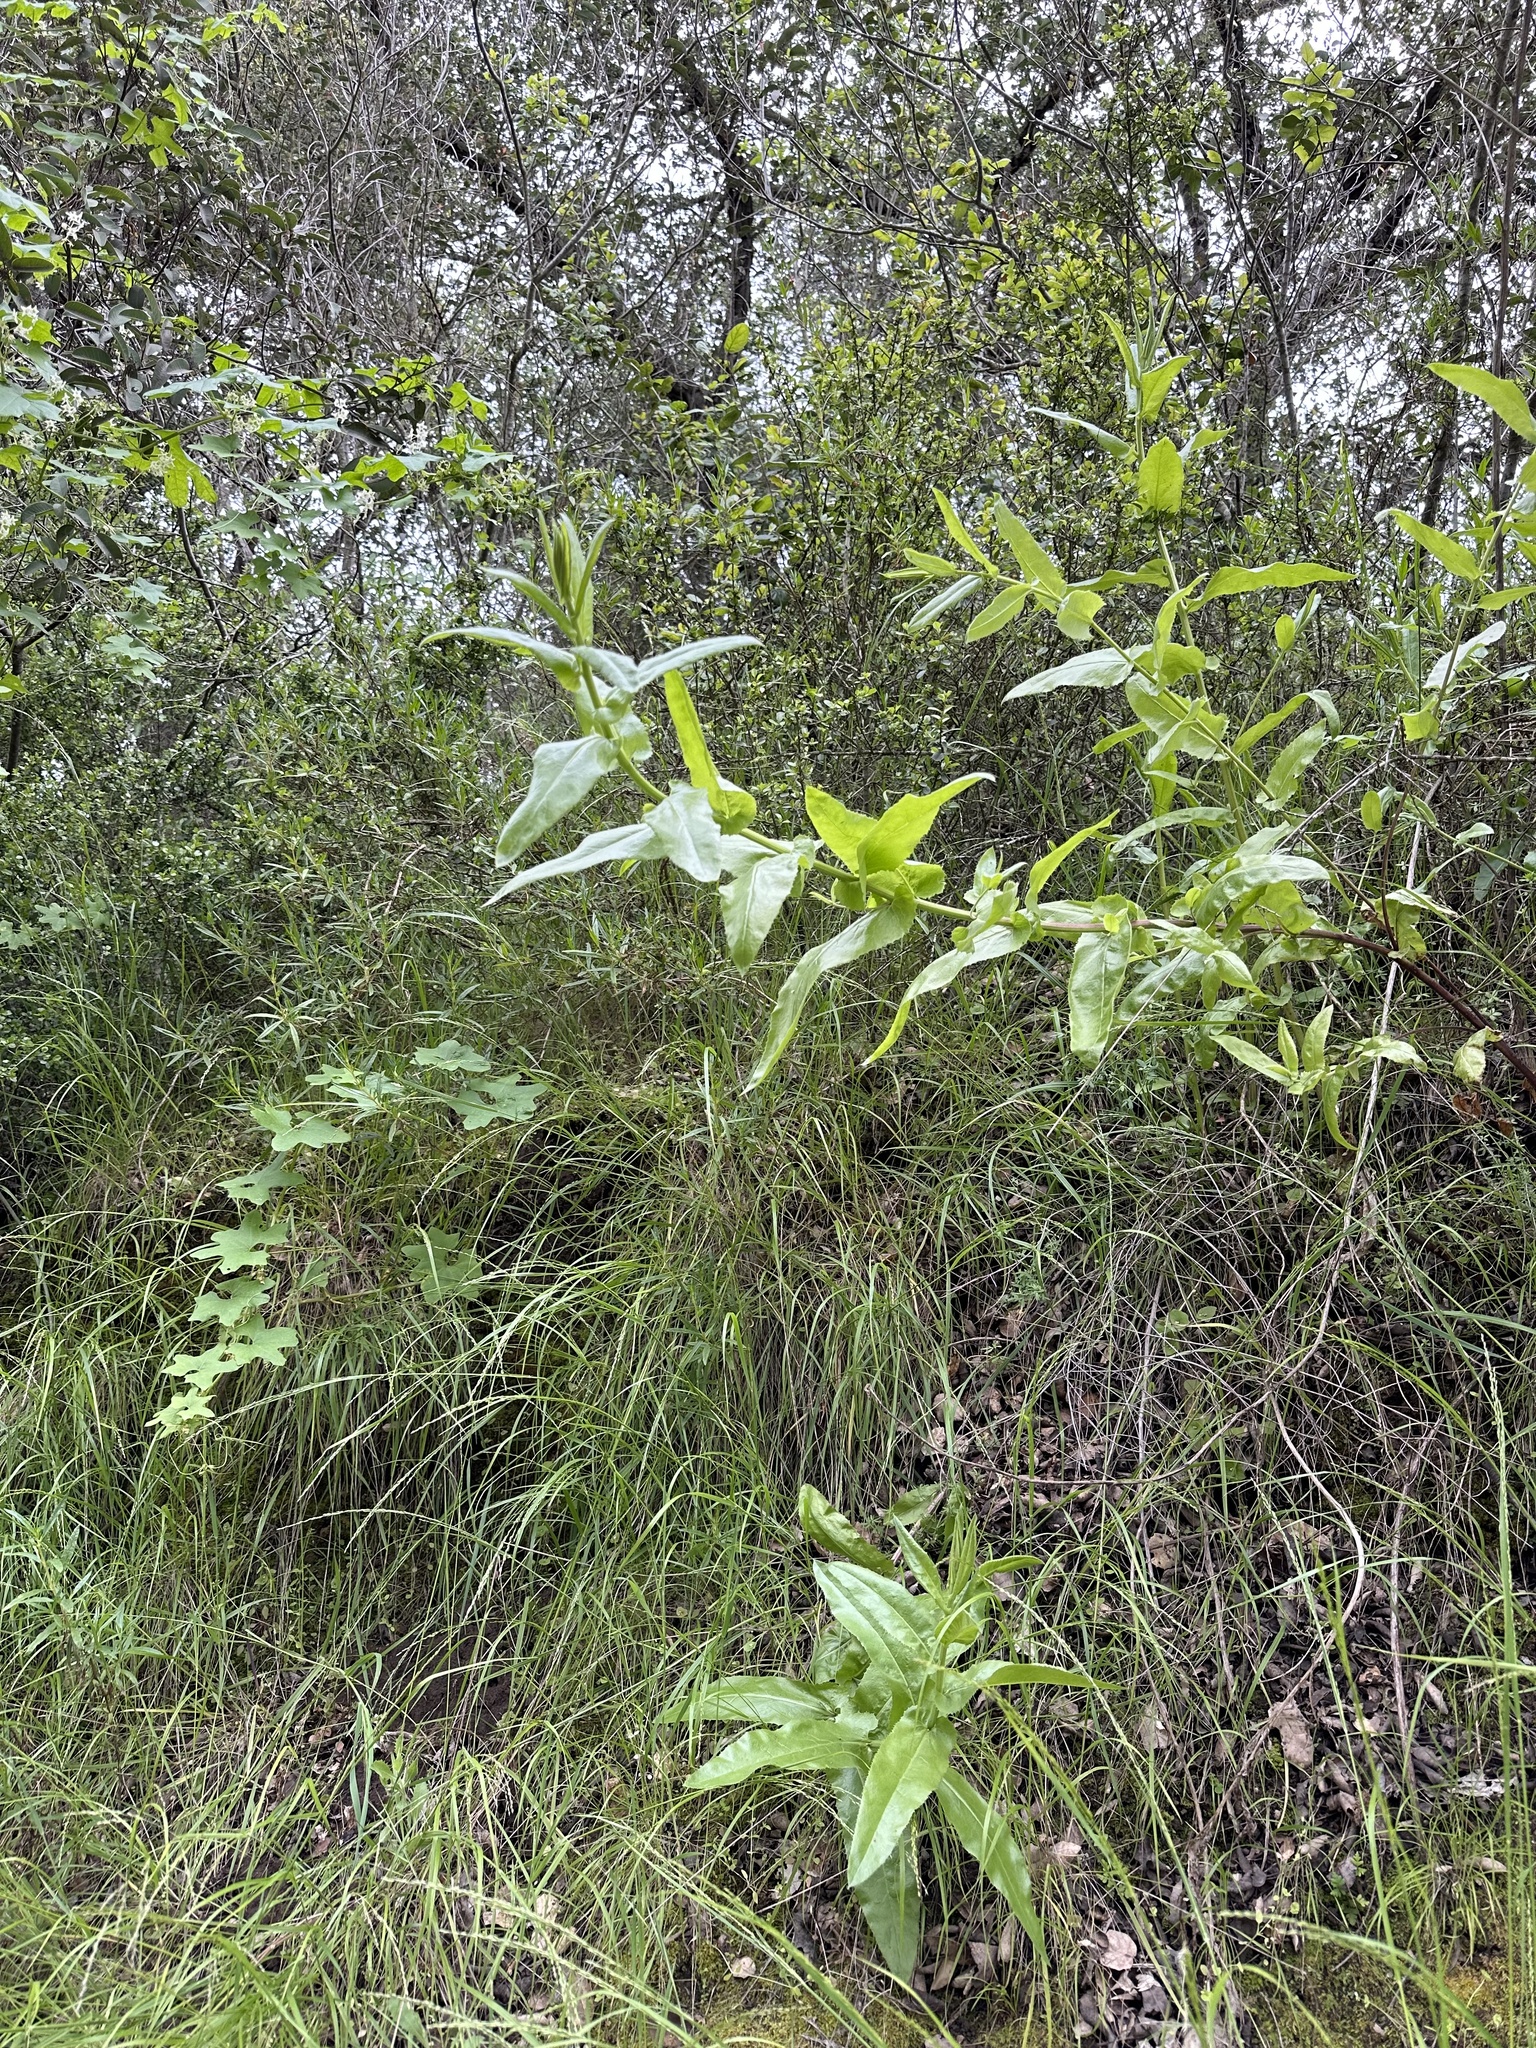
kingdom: Plantae
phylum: Tracheophyta
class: Magnoliopsida
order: Asterales
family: Asteraceae
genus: Acourtia
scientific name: Acourtia microcephala
